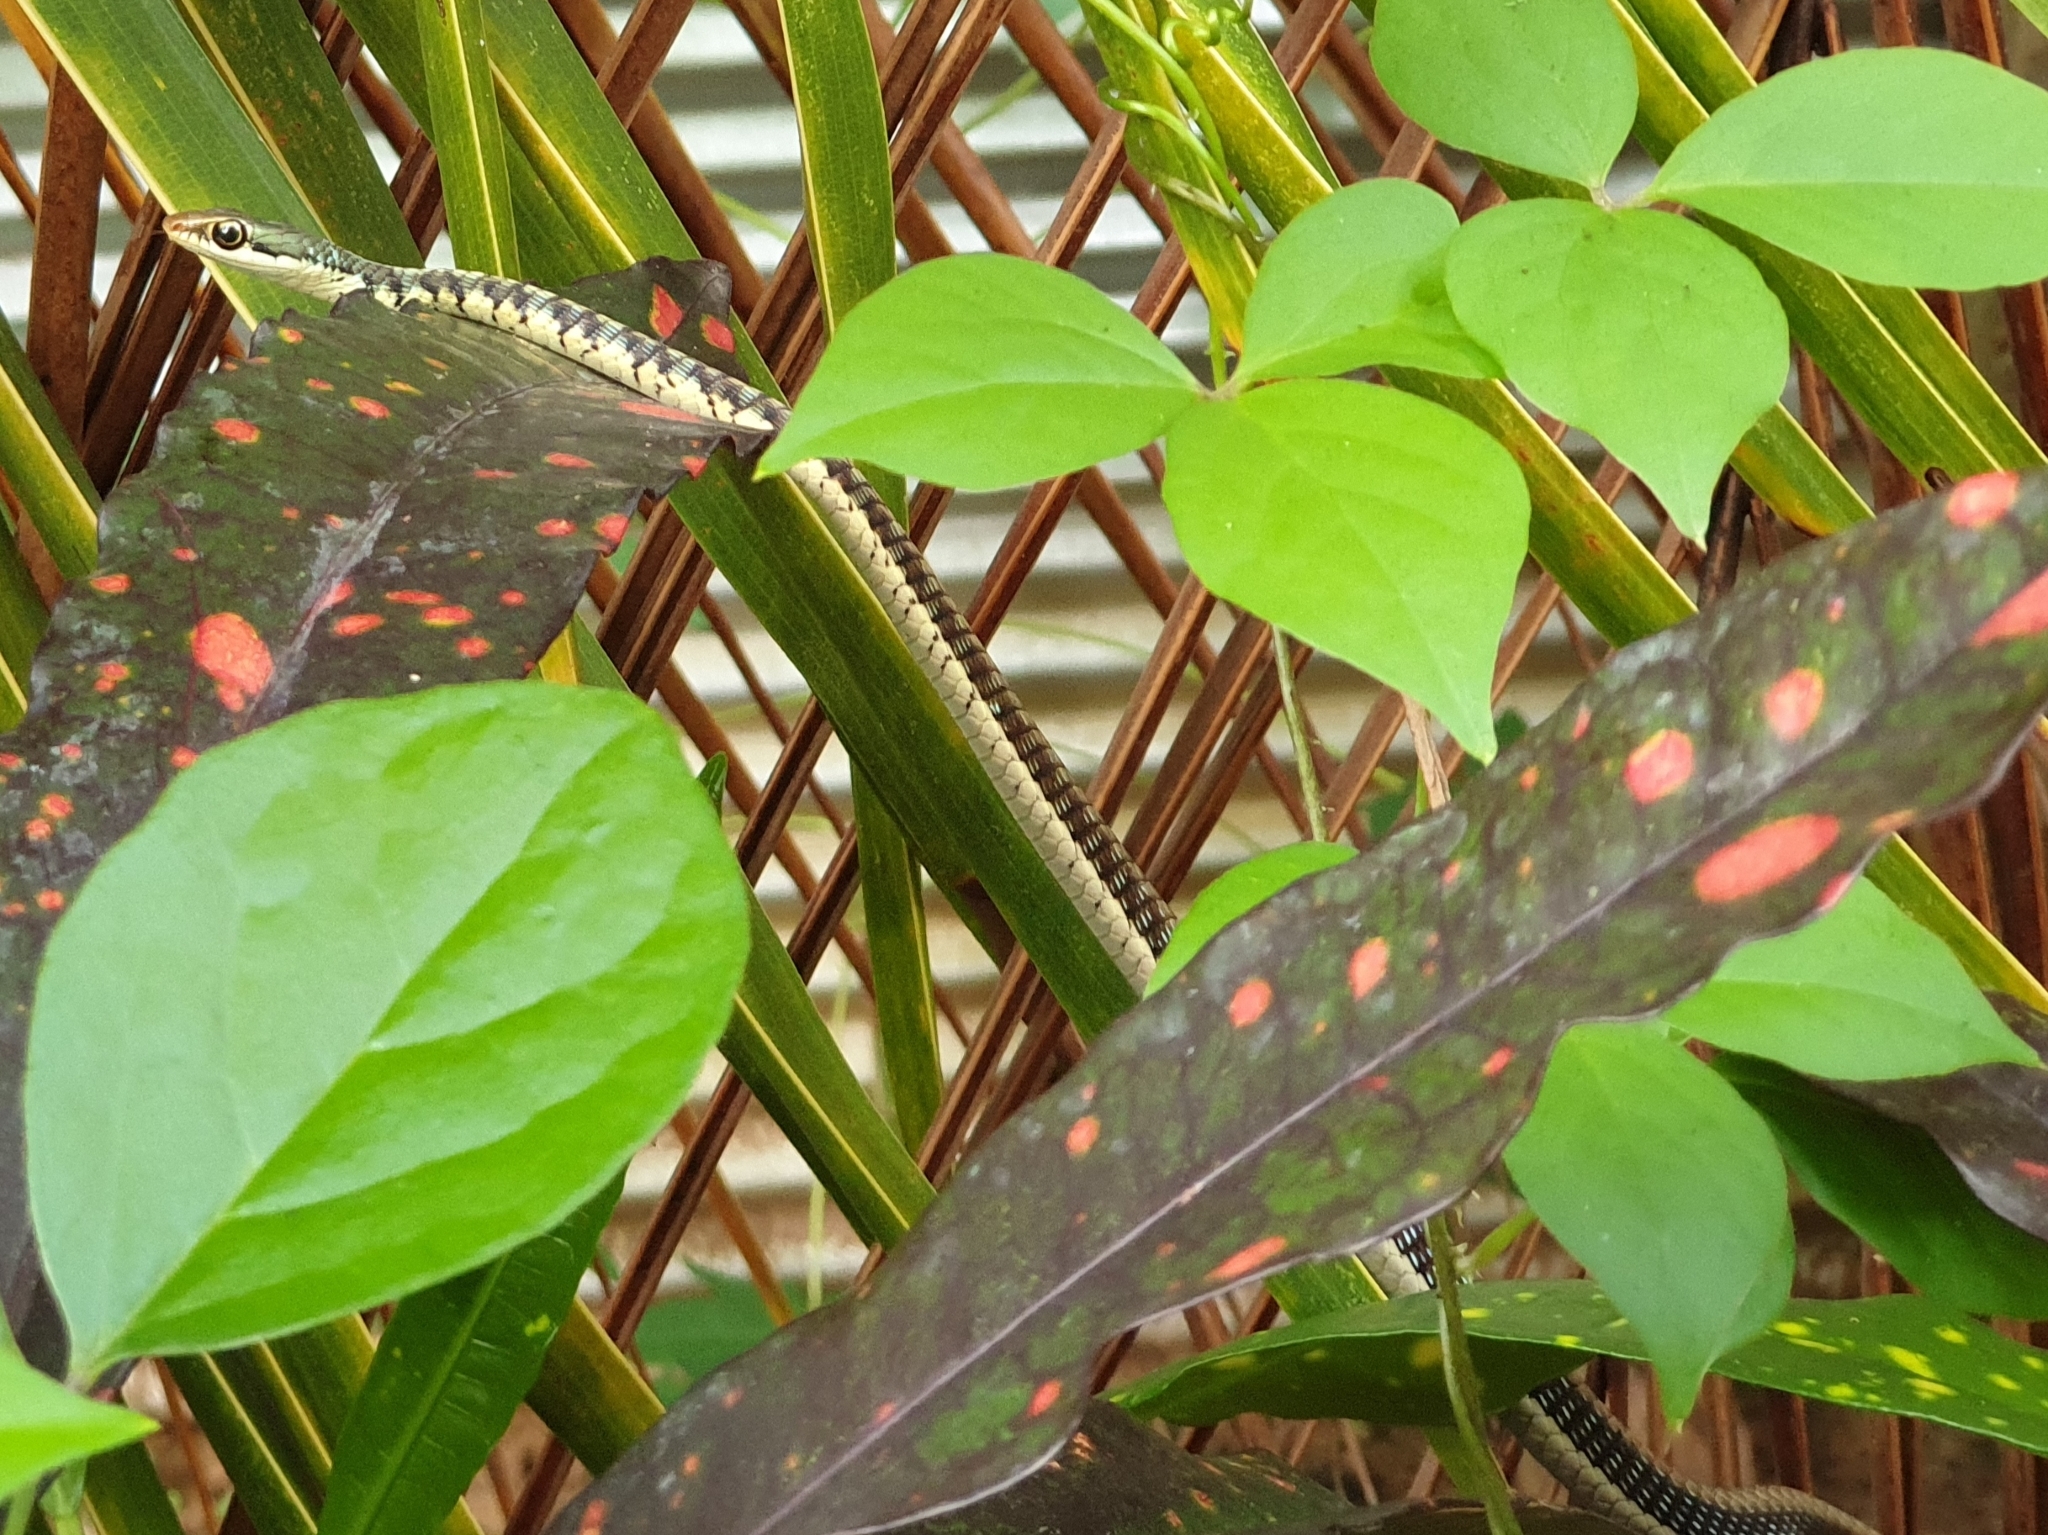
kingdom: Animalia
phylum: Chordata
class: Squamata
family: Colubridae
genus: Dendrelaphis
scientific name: Dendrelaphis tristis
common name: Daudin's bronzeback
